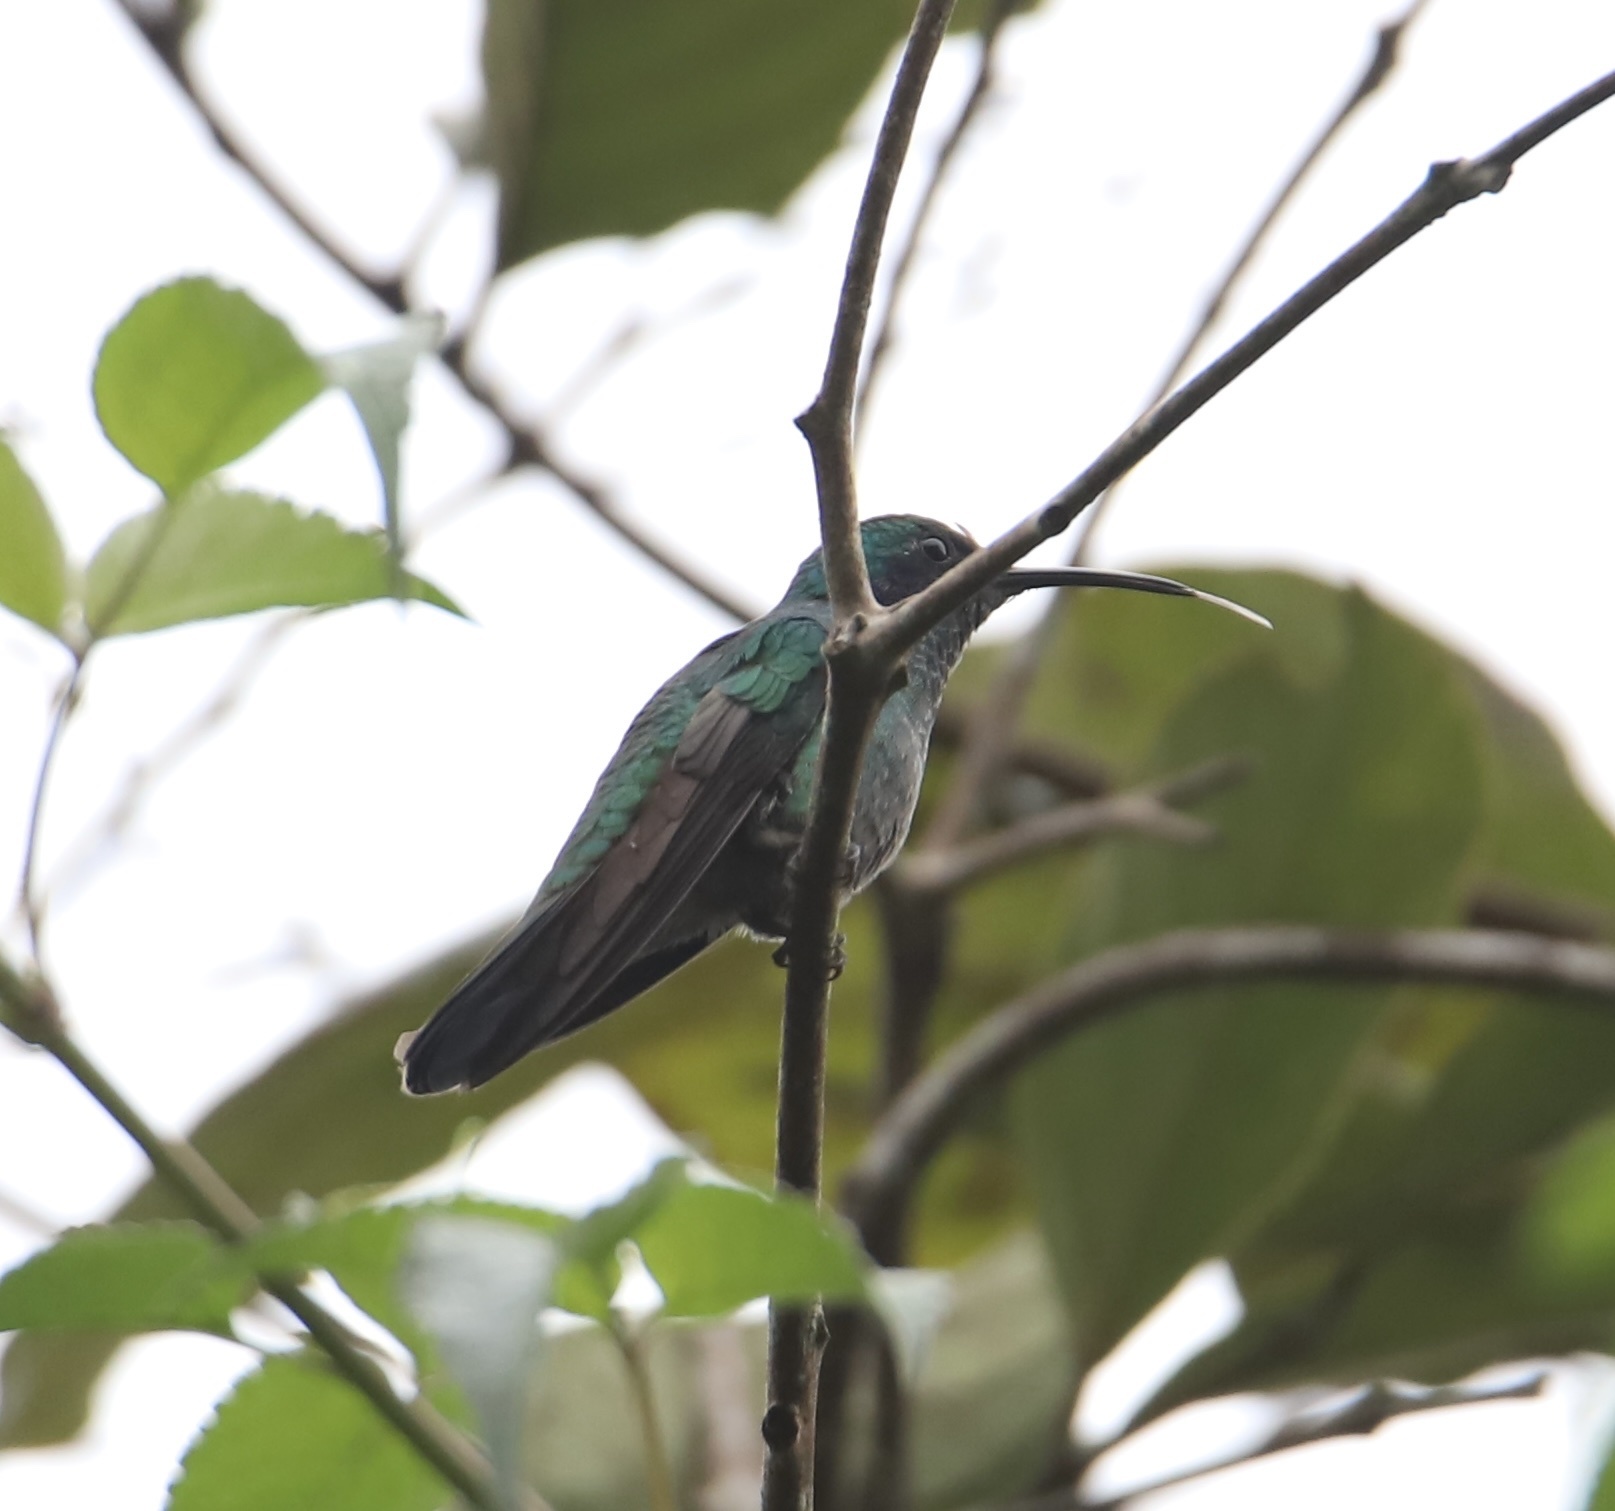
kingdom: Animalia
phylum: Chordata
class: Aves
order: Apodiformes
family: Trochilidae
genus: Colibri
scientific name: Colibri cyanotus
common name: Lesser violetear
